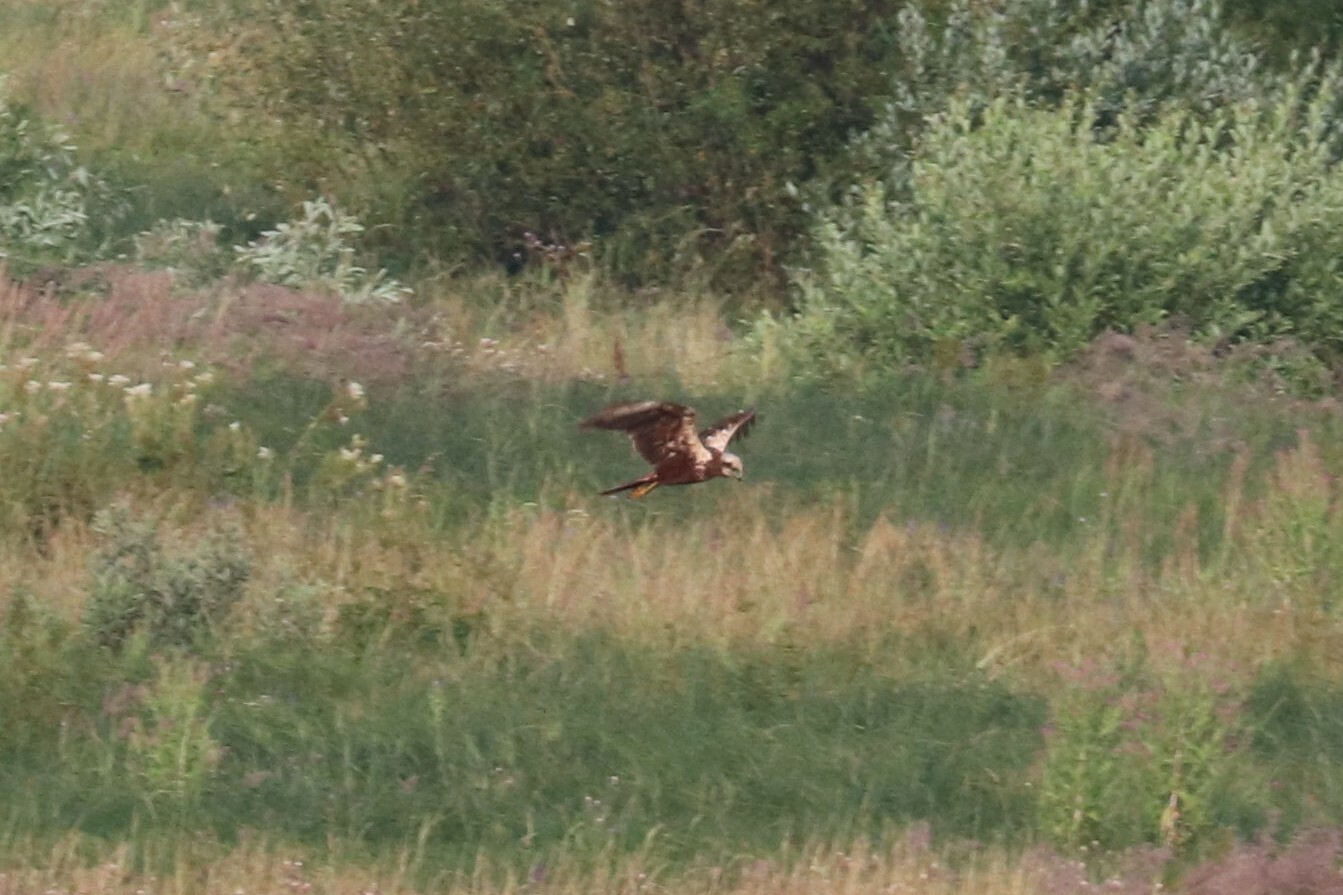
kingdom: Animalia
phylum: Chordata
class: Aves
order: Accipitriformes
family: Accipitridae
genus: Circus
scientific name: Circus aeruginosus
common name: Western marsh harrier
